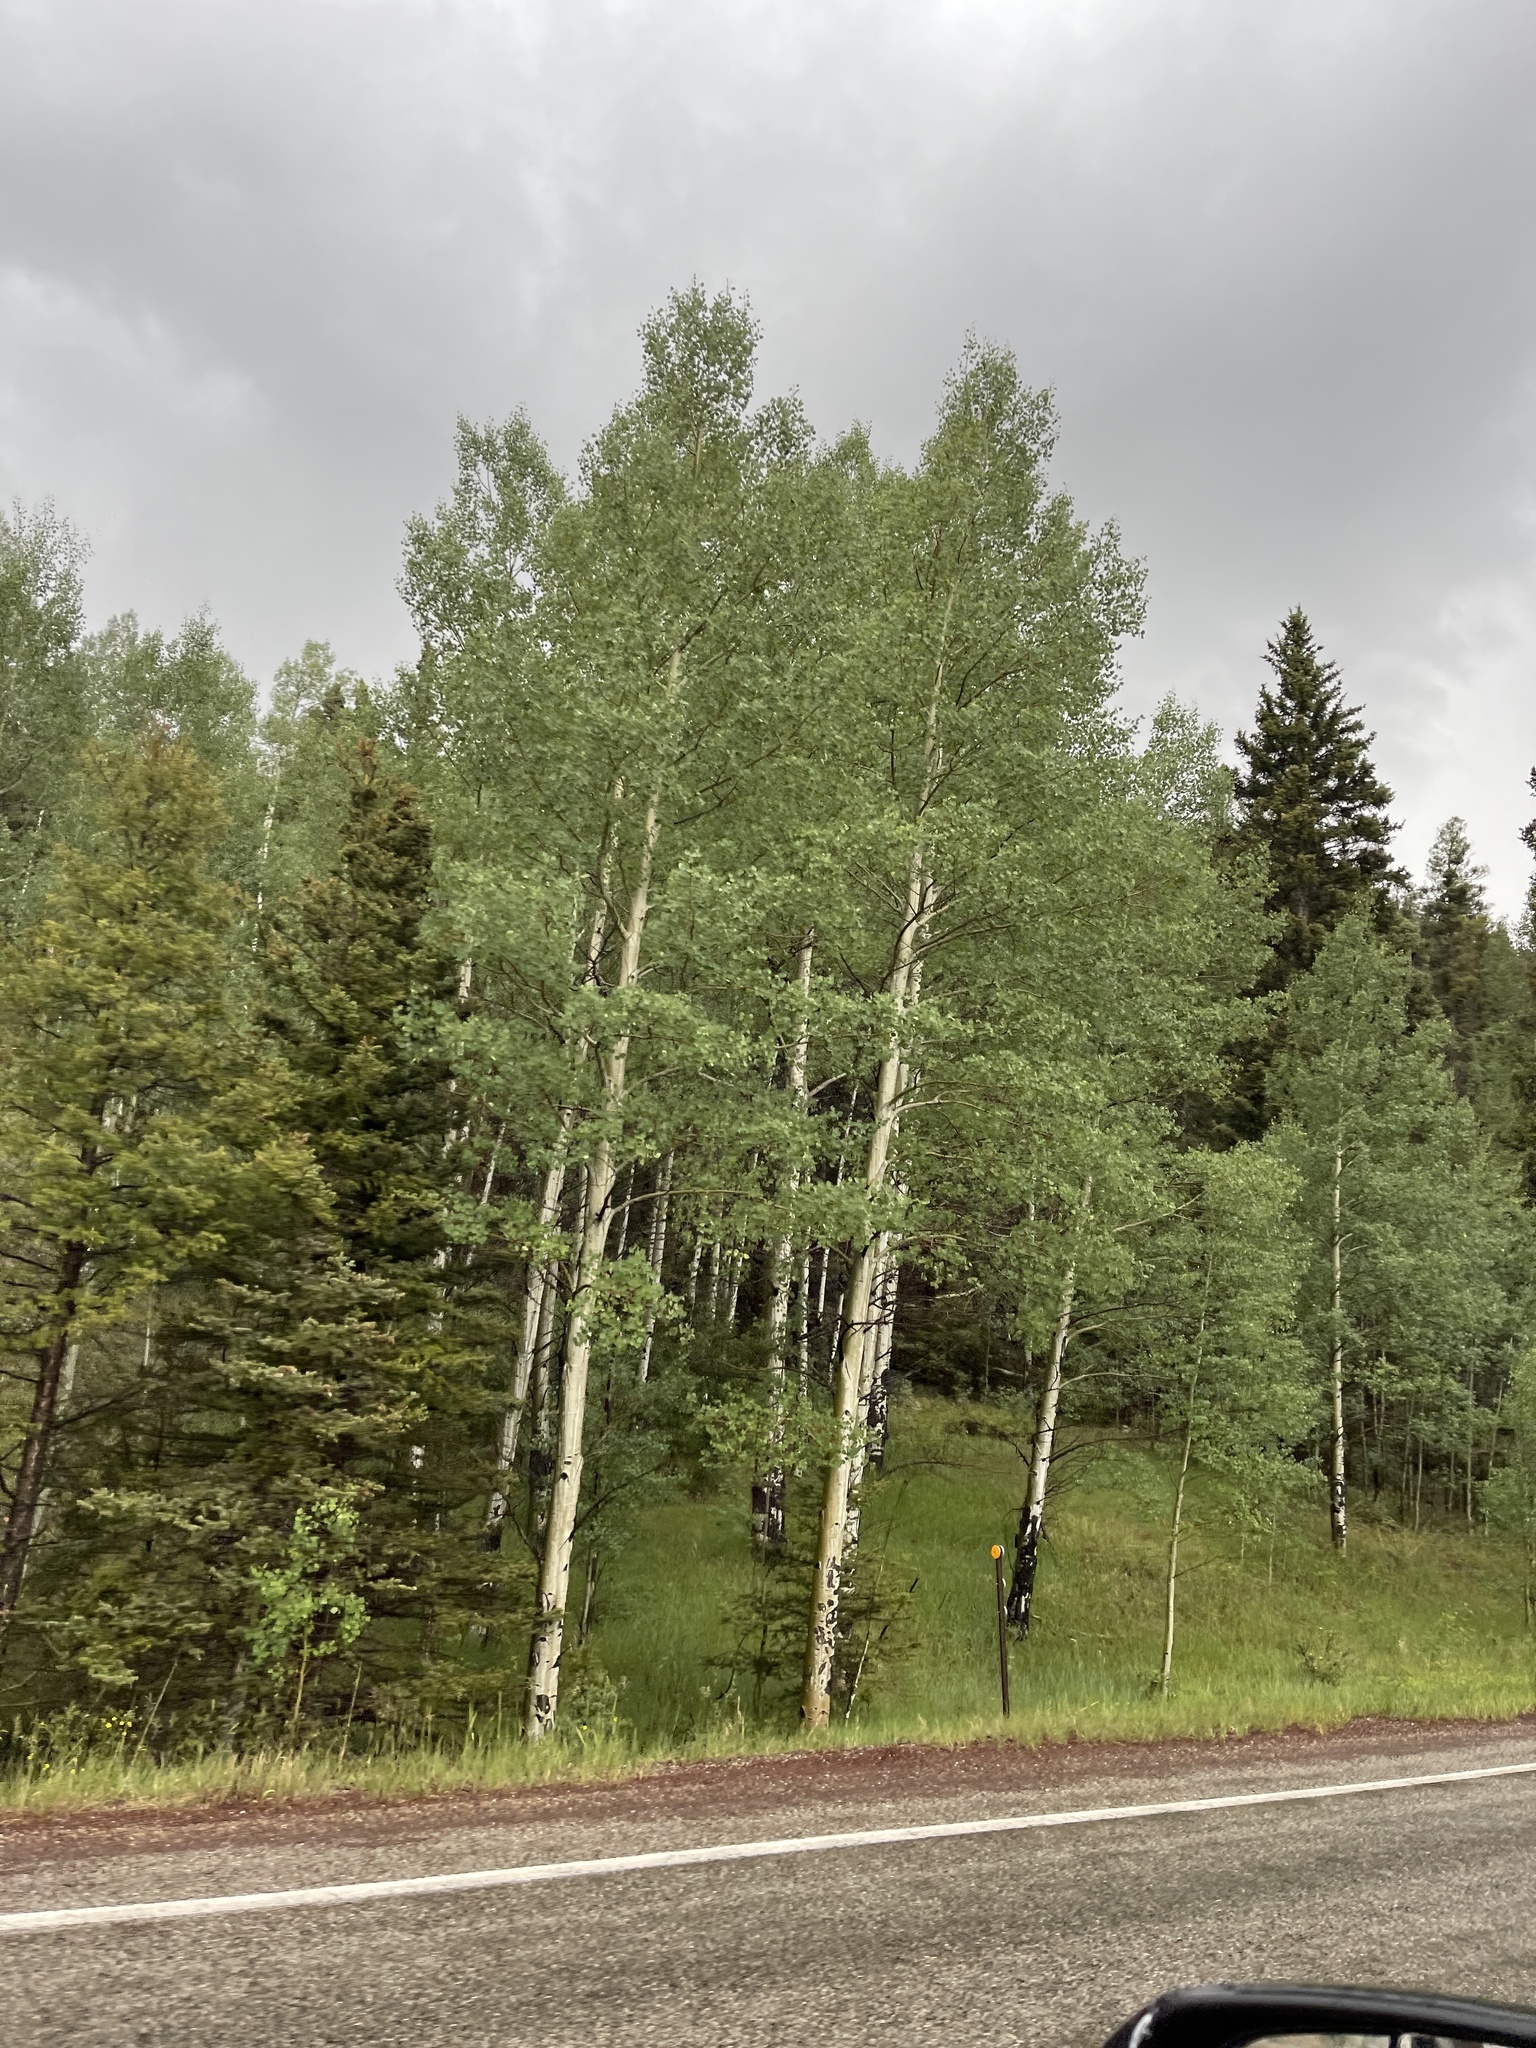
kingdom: Plantae
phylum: Tracheophyta
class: Magnoliopsida
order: Malpighiales
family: Salicaceae
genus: Populus
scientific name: Populus tremuloides
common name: Quaking aspen
